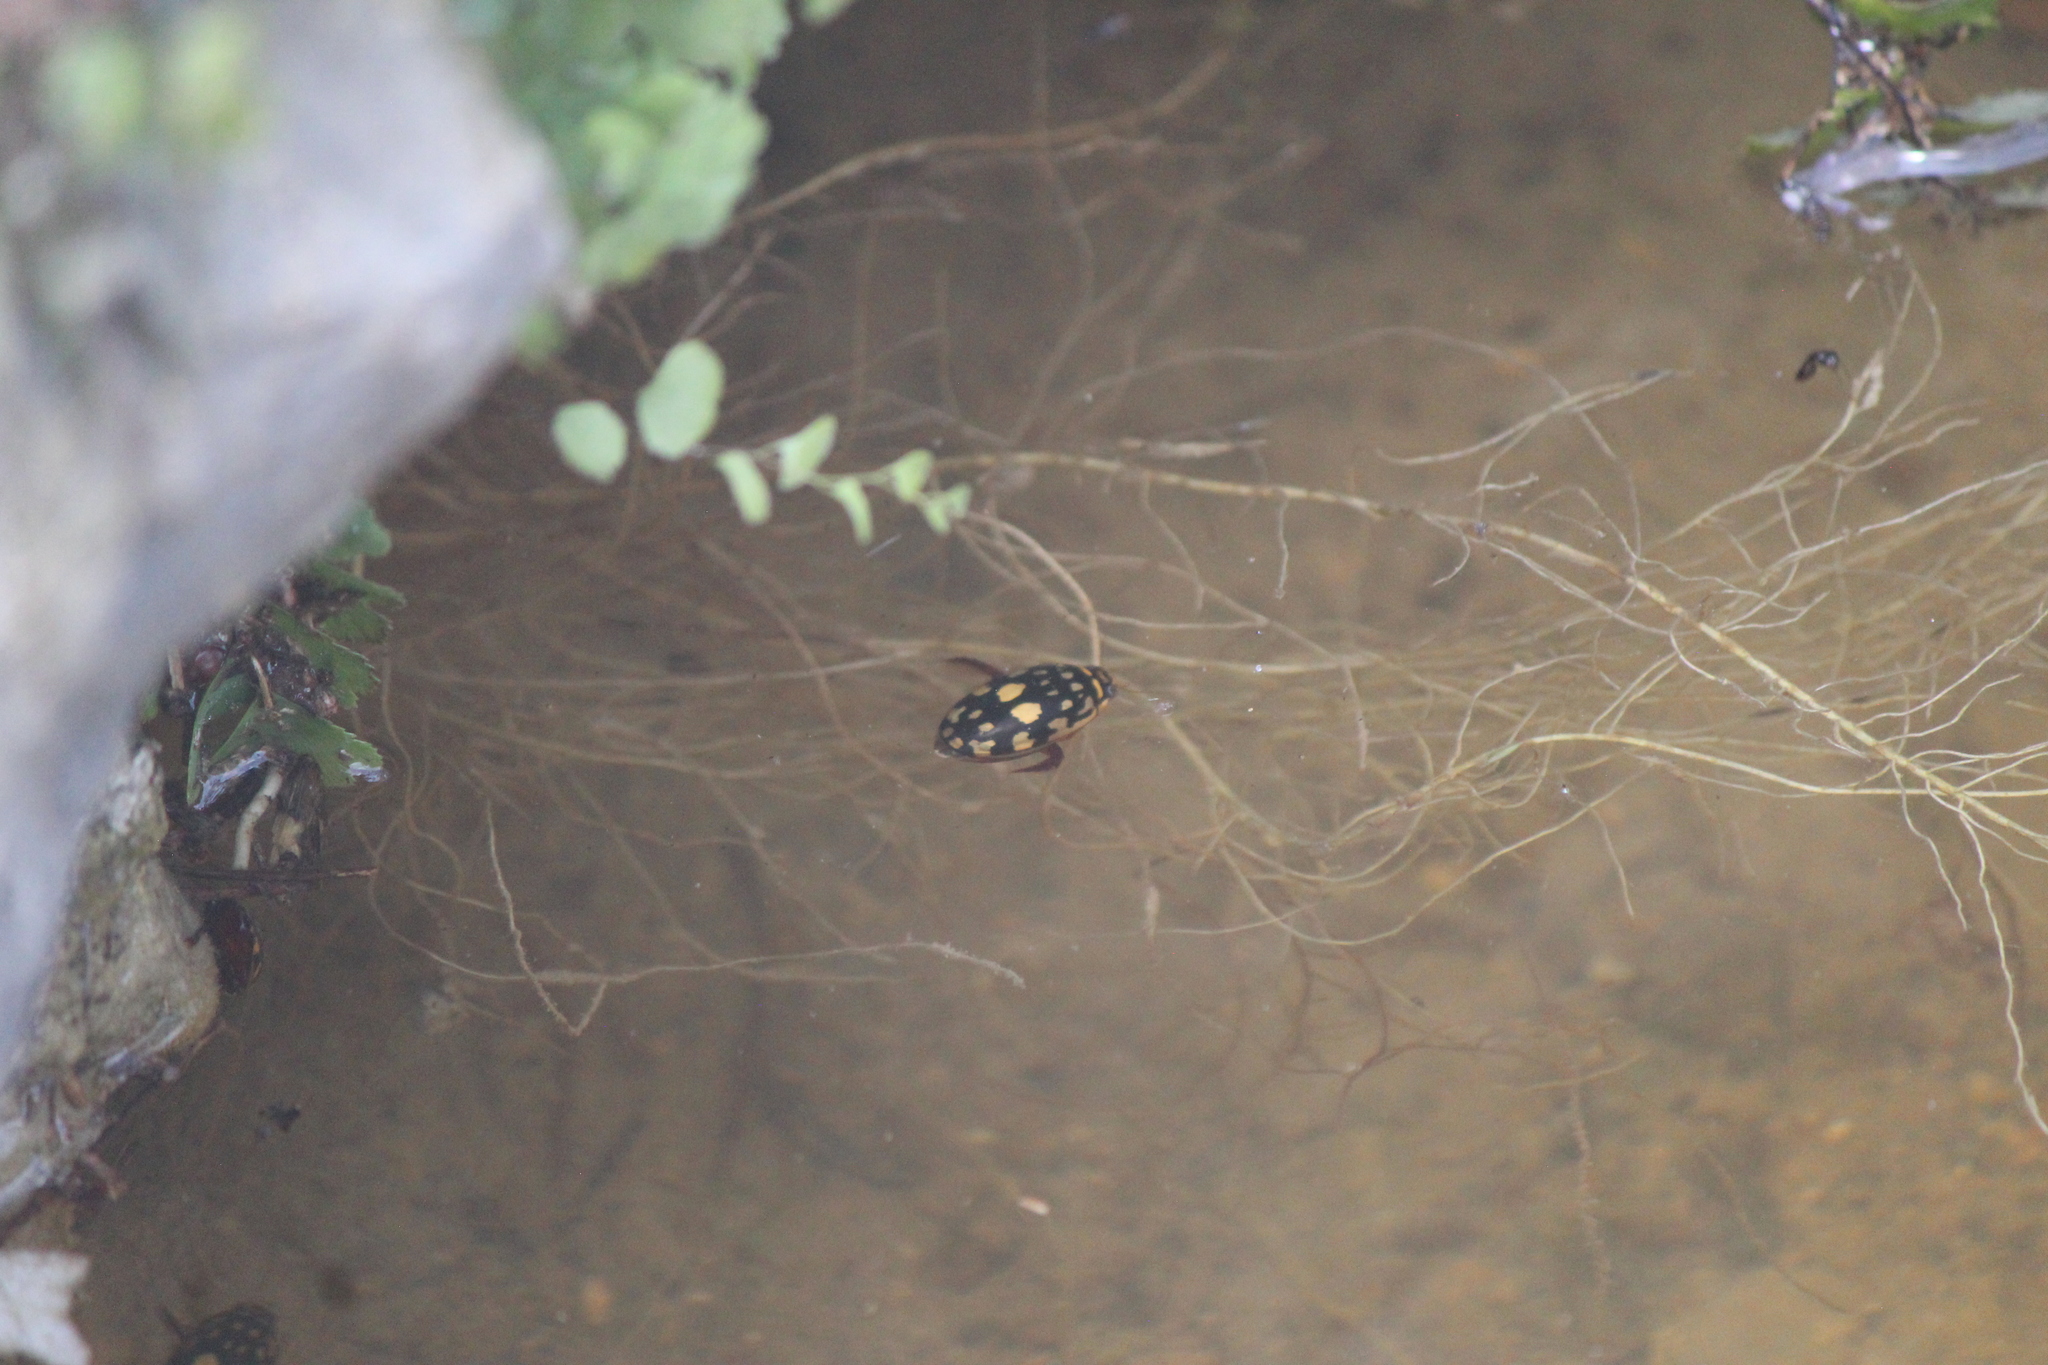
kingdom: Animalia
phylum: Arthropoda
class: Insecta
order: Coleoptera
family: Dytiscidae
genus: Thermonectus
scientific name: Thermonectus marmoratus
